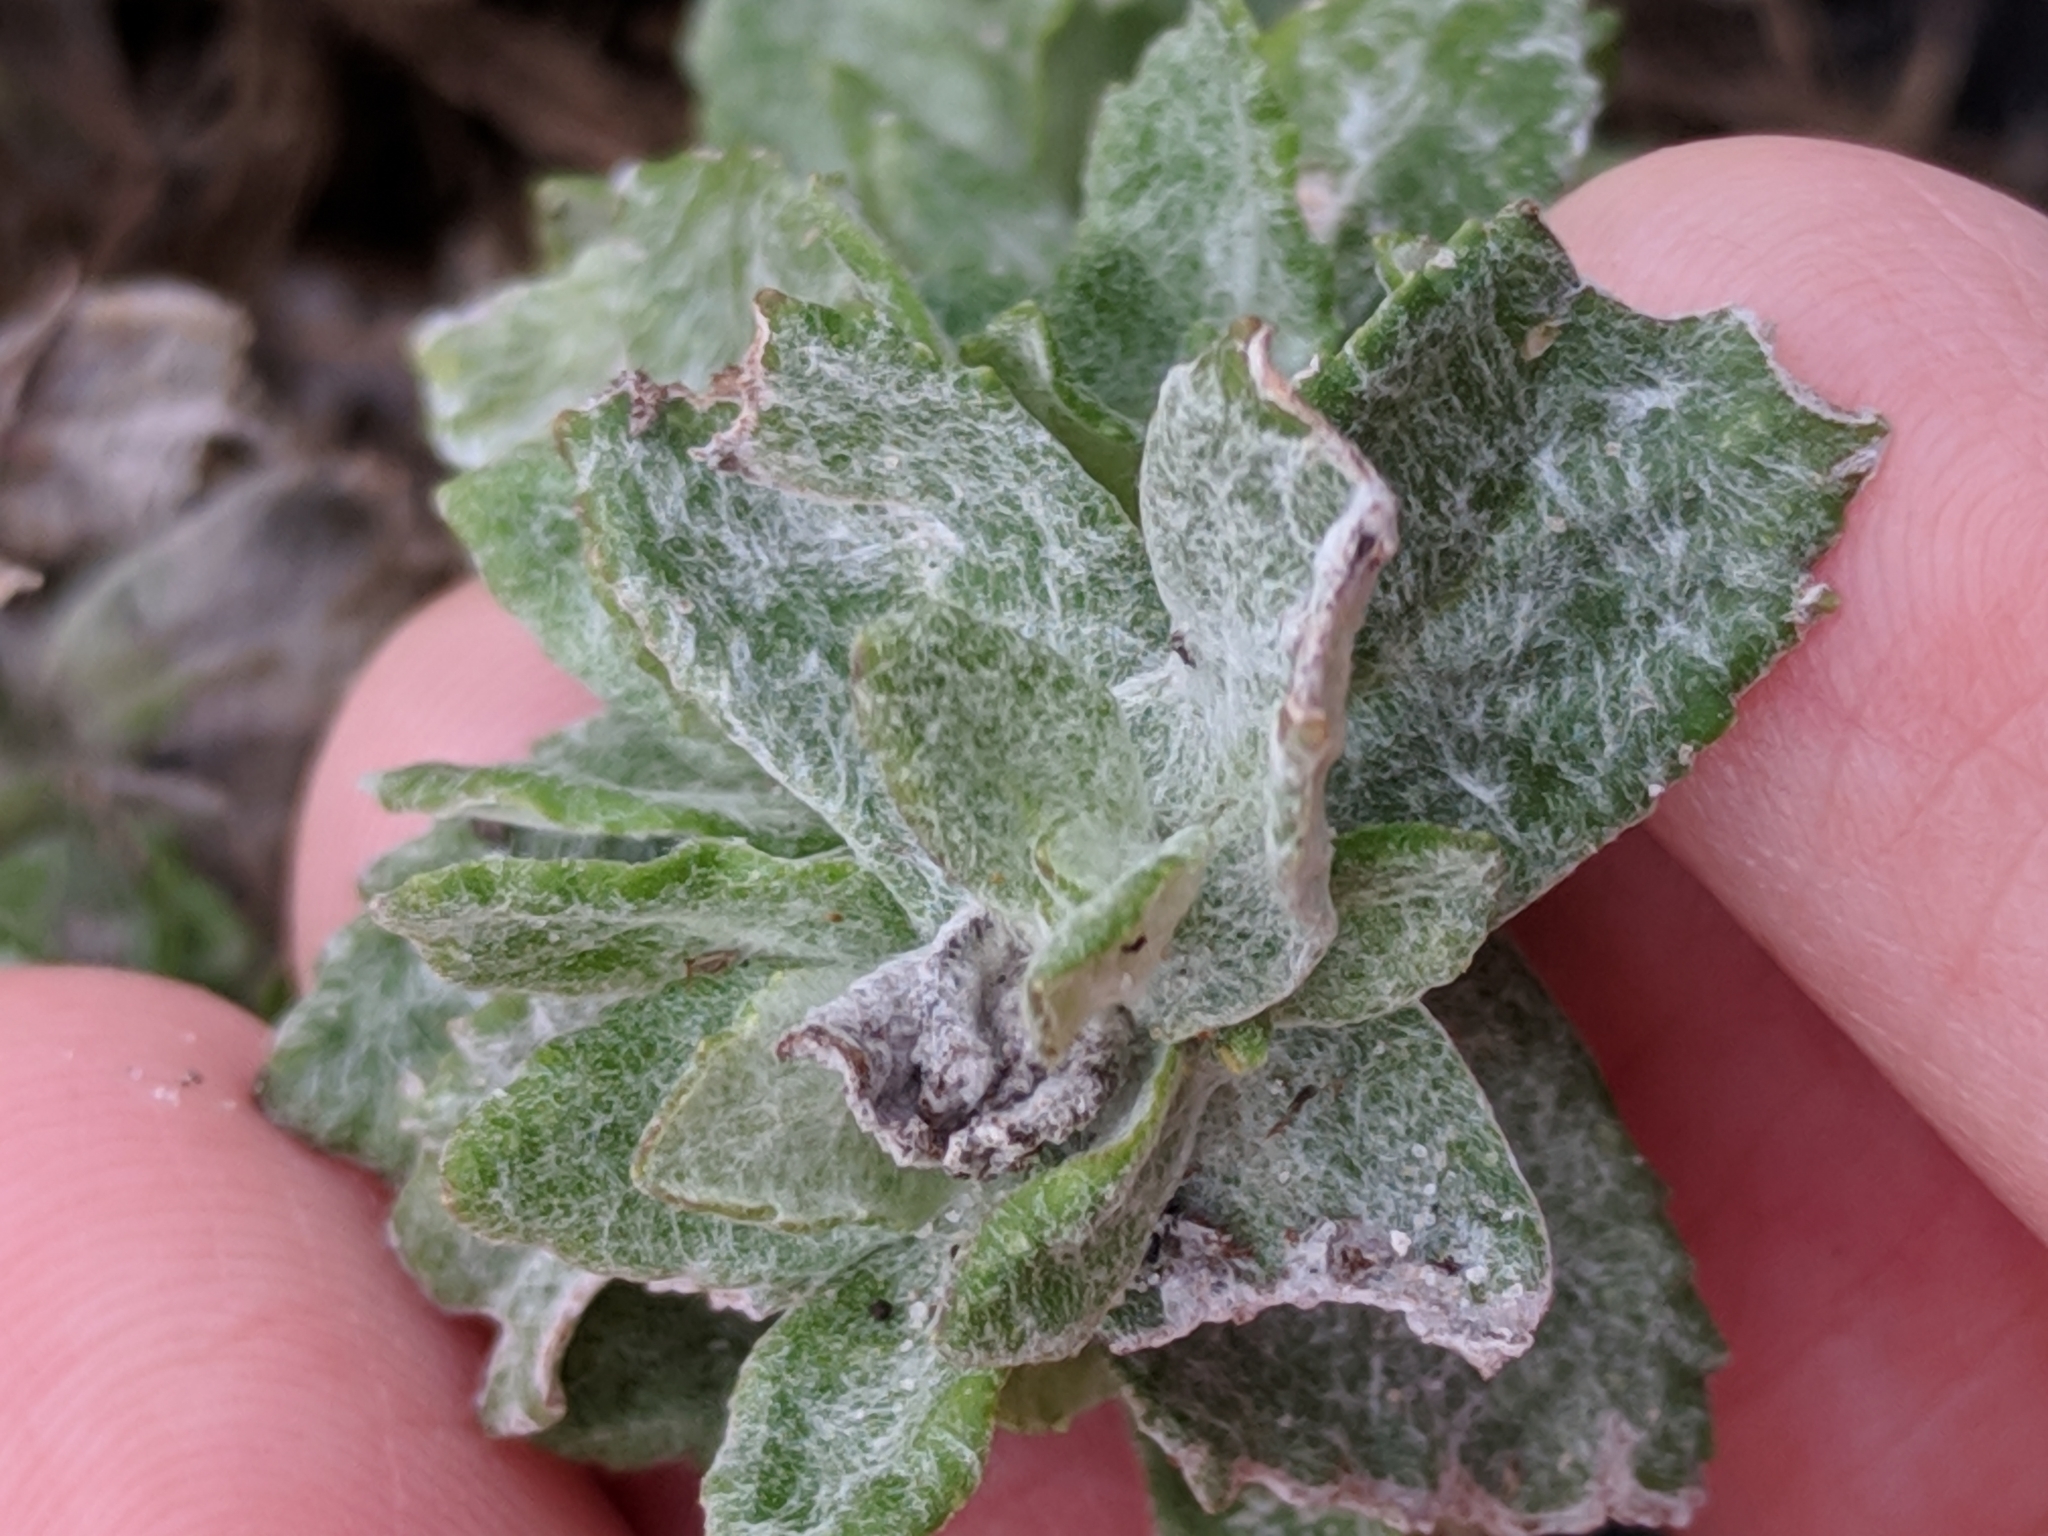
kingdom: Plantae
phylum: Tracheophyta
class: Magnoliopsida
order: Lamiales
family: Plantaginaceae
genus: Stemodia
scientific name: Stemodia lanata
